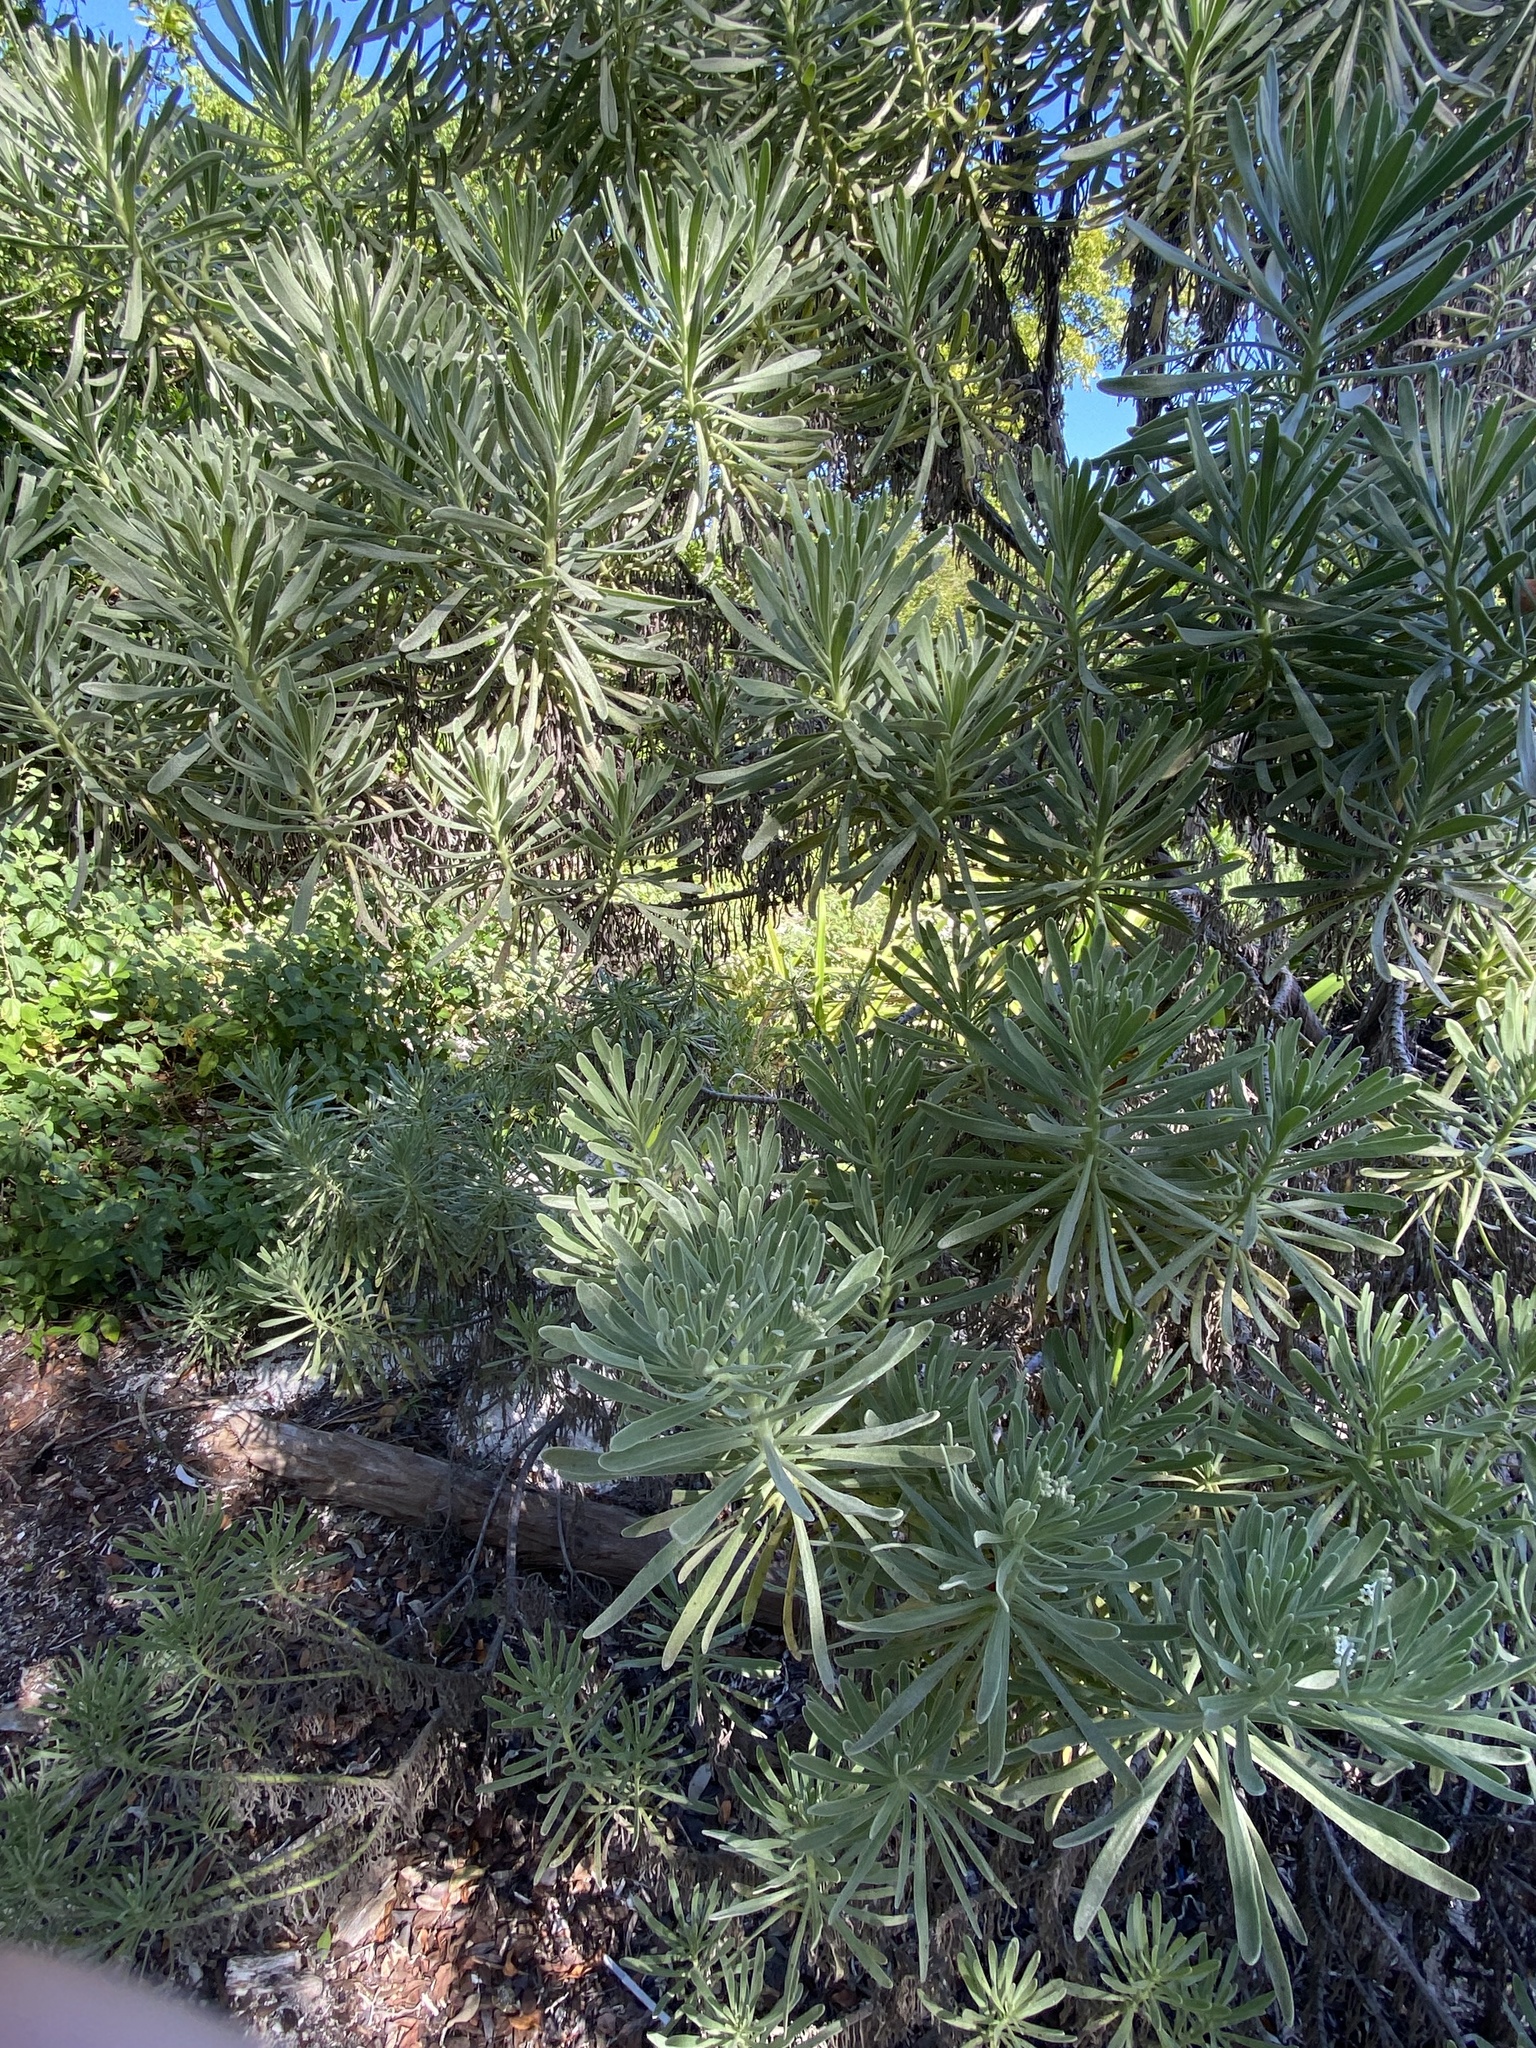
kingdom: Plantae
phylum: Tracheophyta
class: Magnoliopsida
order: Boraginales
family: Heliotropiaceae
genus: Tournefortia
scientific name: Tournefortia gnaphalodes
